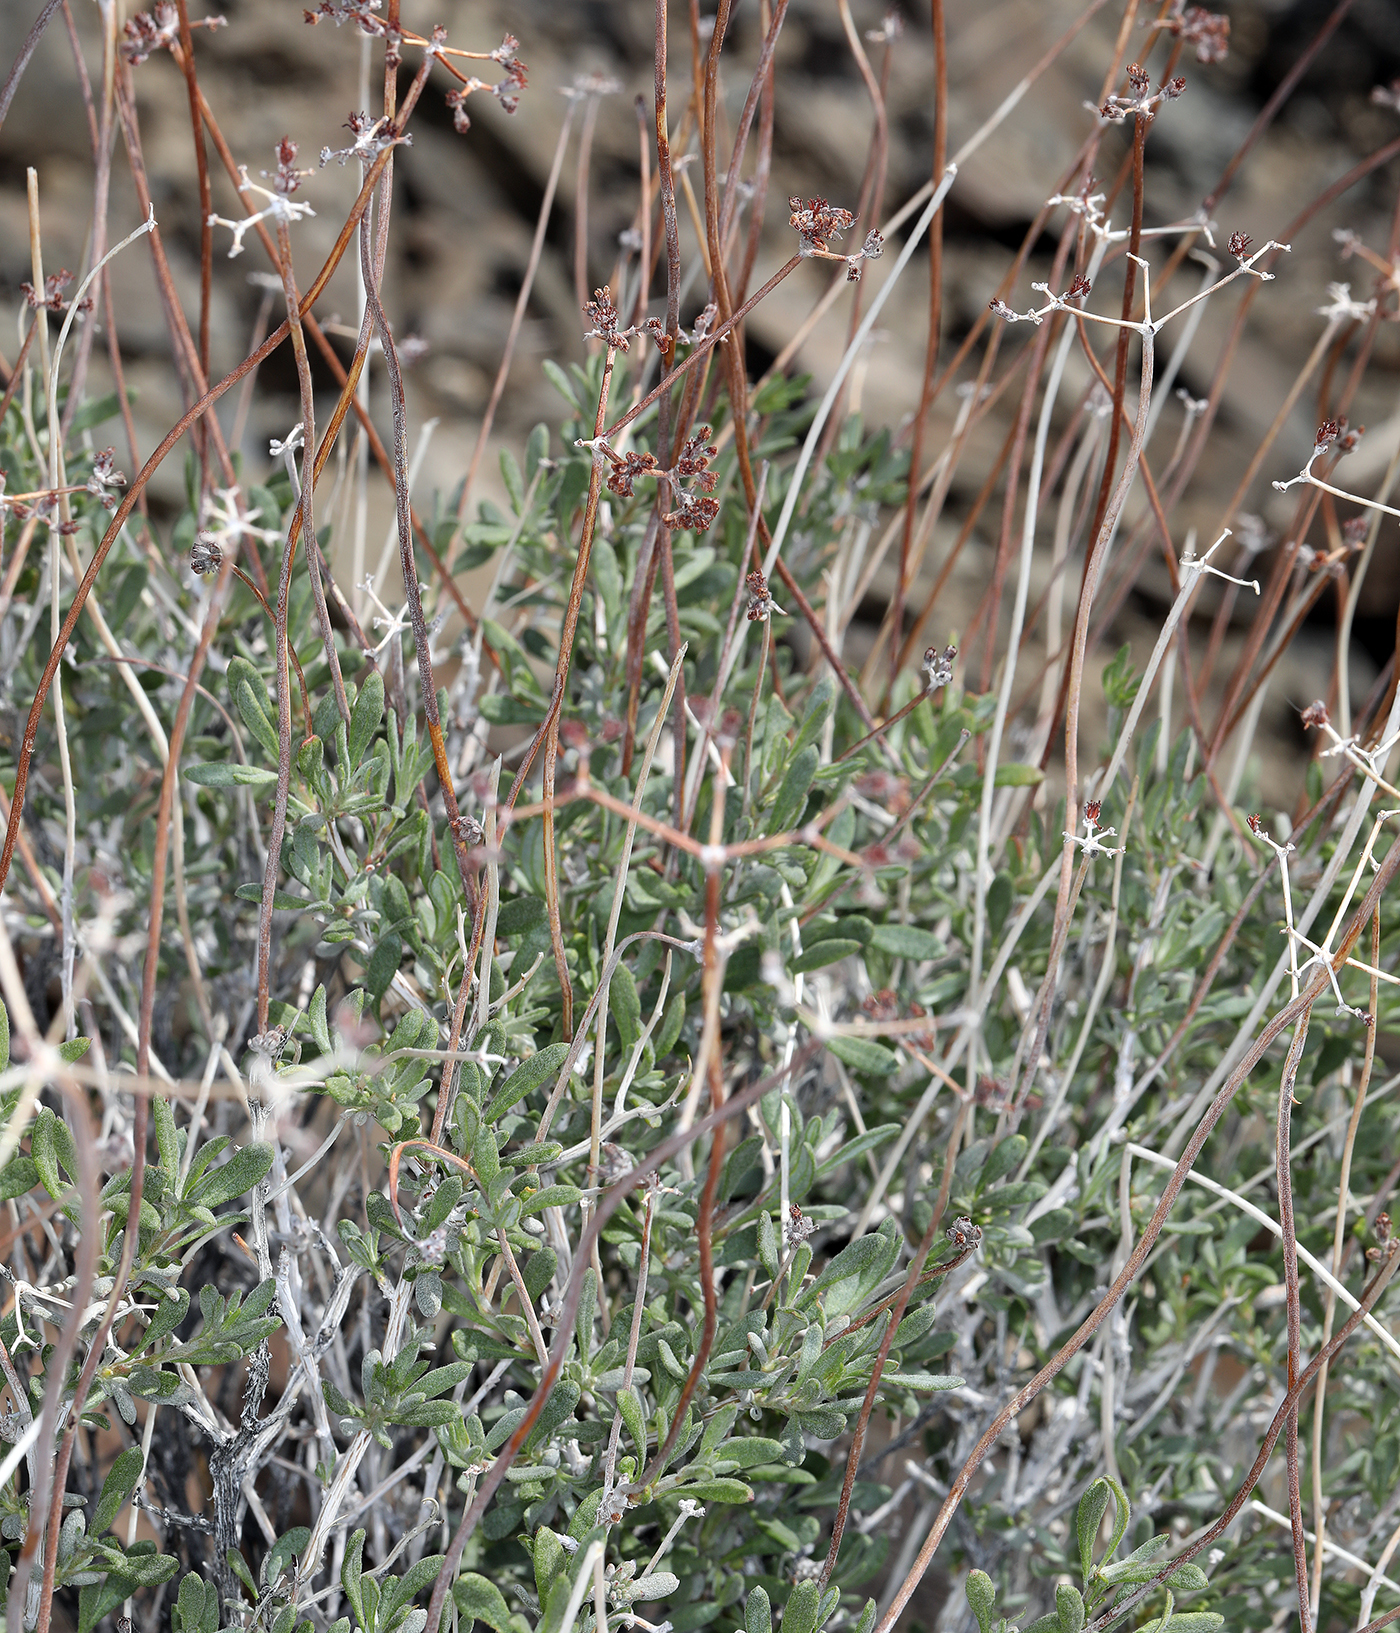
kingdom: Plantae
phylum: Tracheophyta
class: Magnoliopsida
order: Caryophyllales
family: Polygonaceae
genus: Eriogonum
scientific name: Eriogonum fasciculatum
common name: California wild buckwheat
